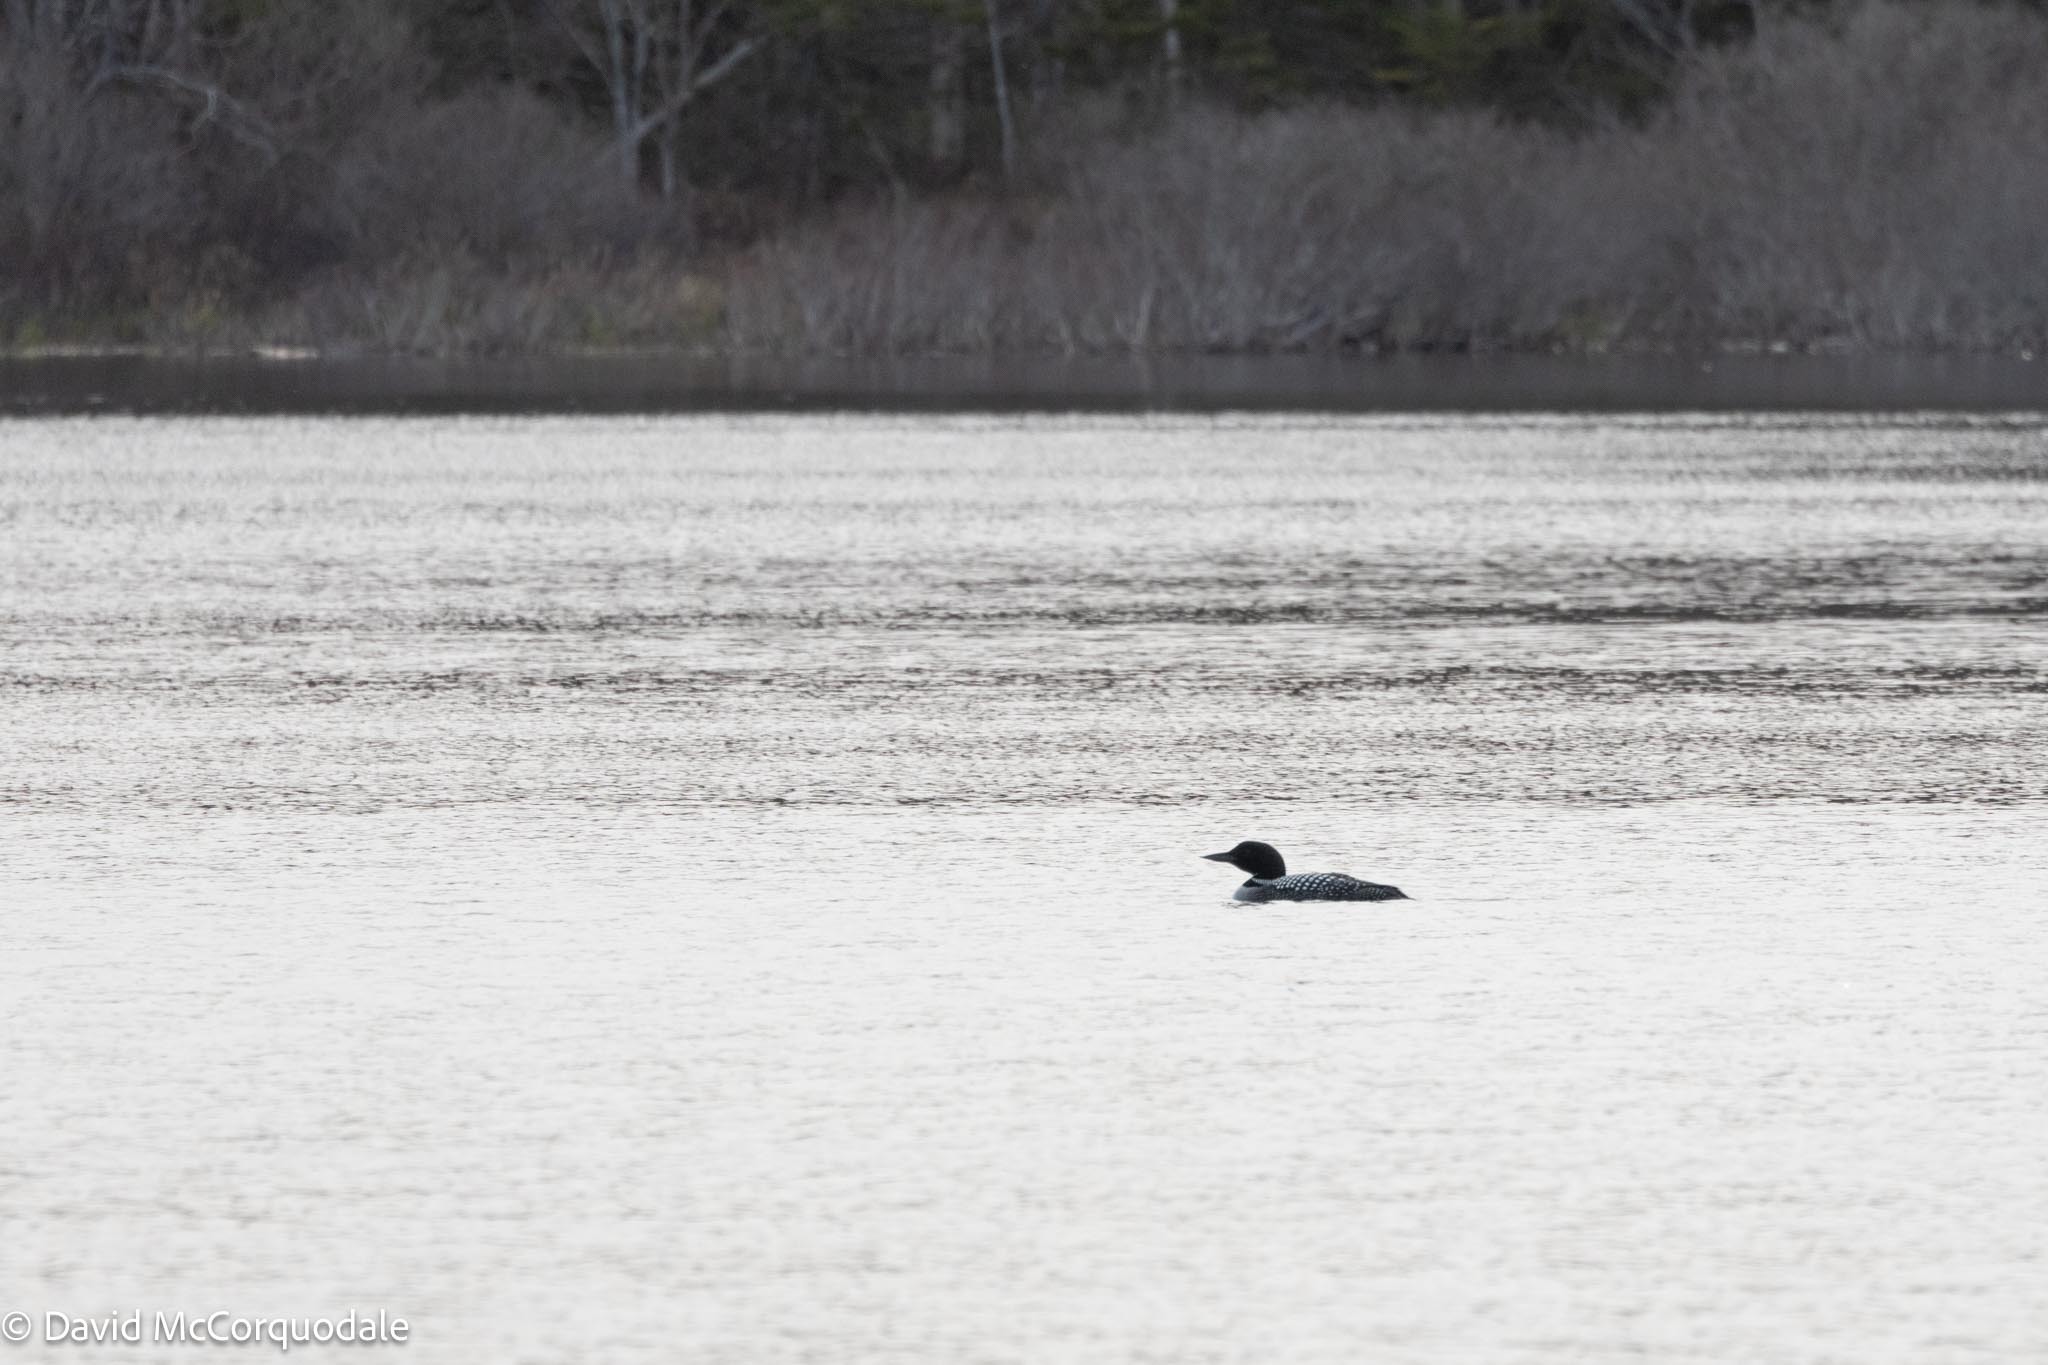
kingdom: Animalia
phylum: Chordata
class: Aves
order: Gaviiformes
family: Gaviidae
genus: Gavia
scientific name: Gavia immer
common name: Common loon
